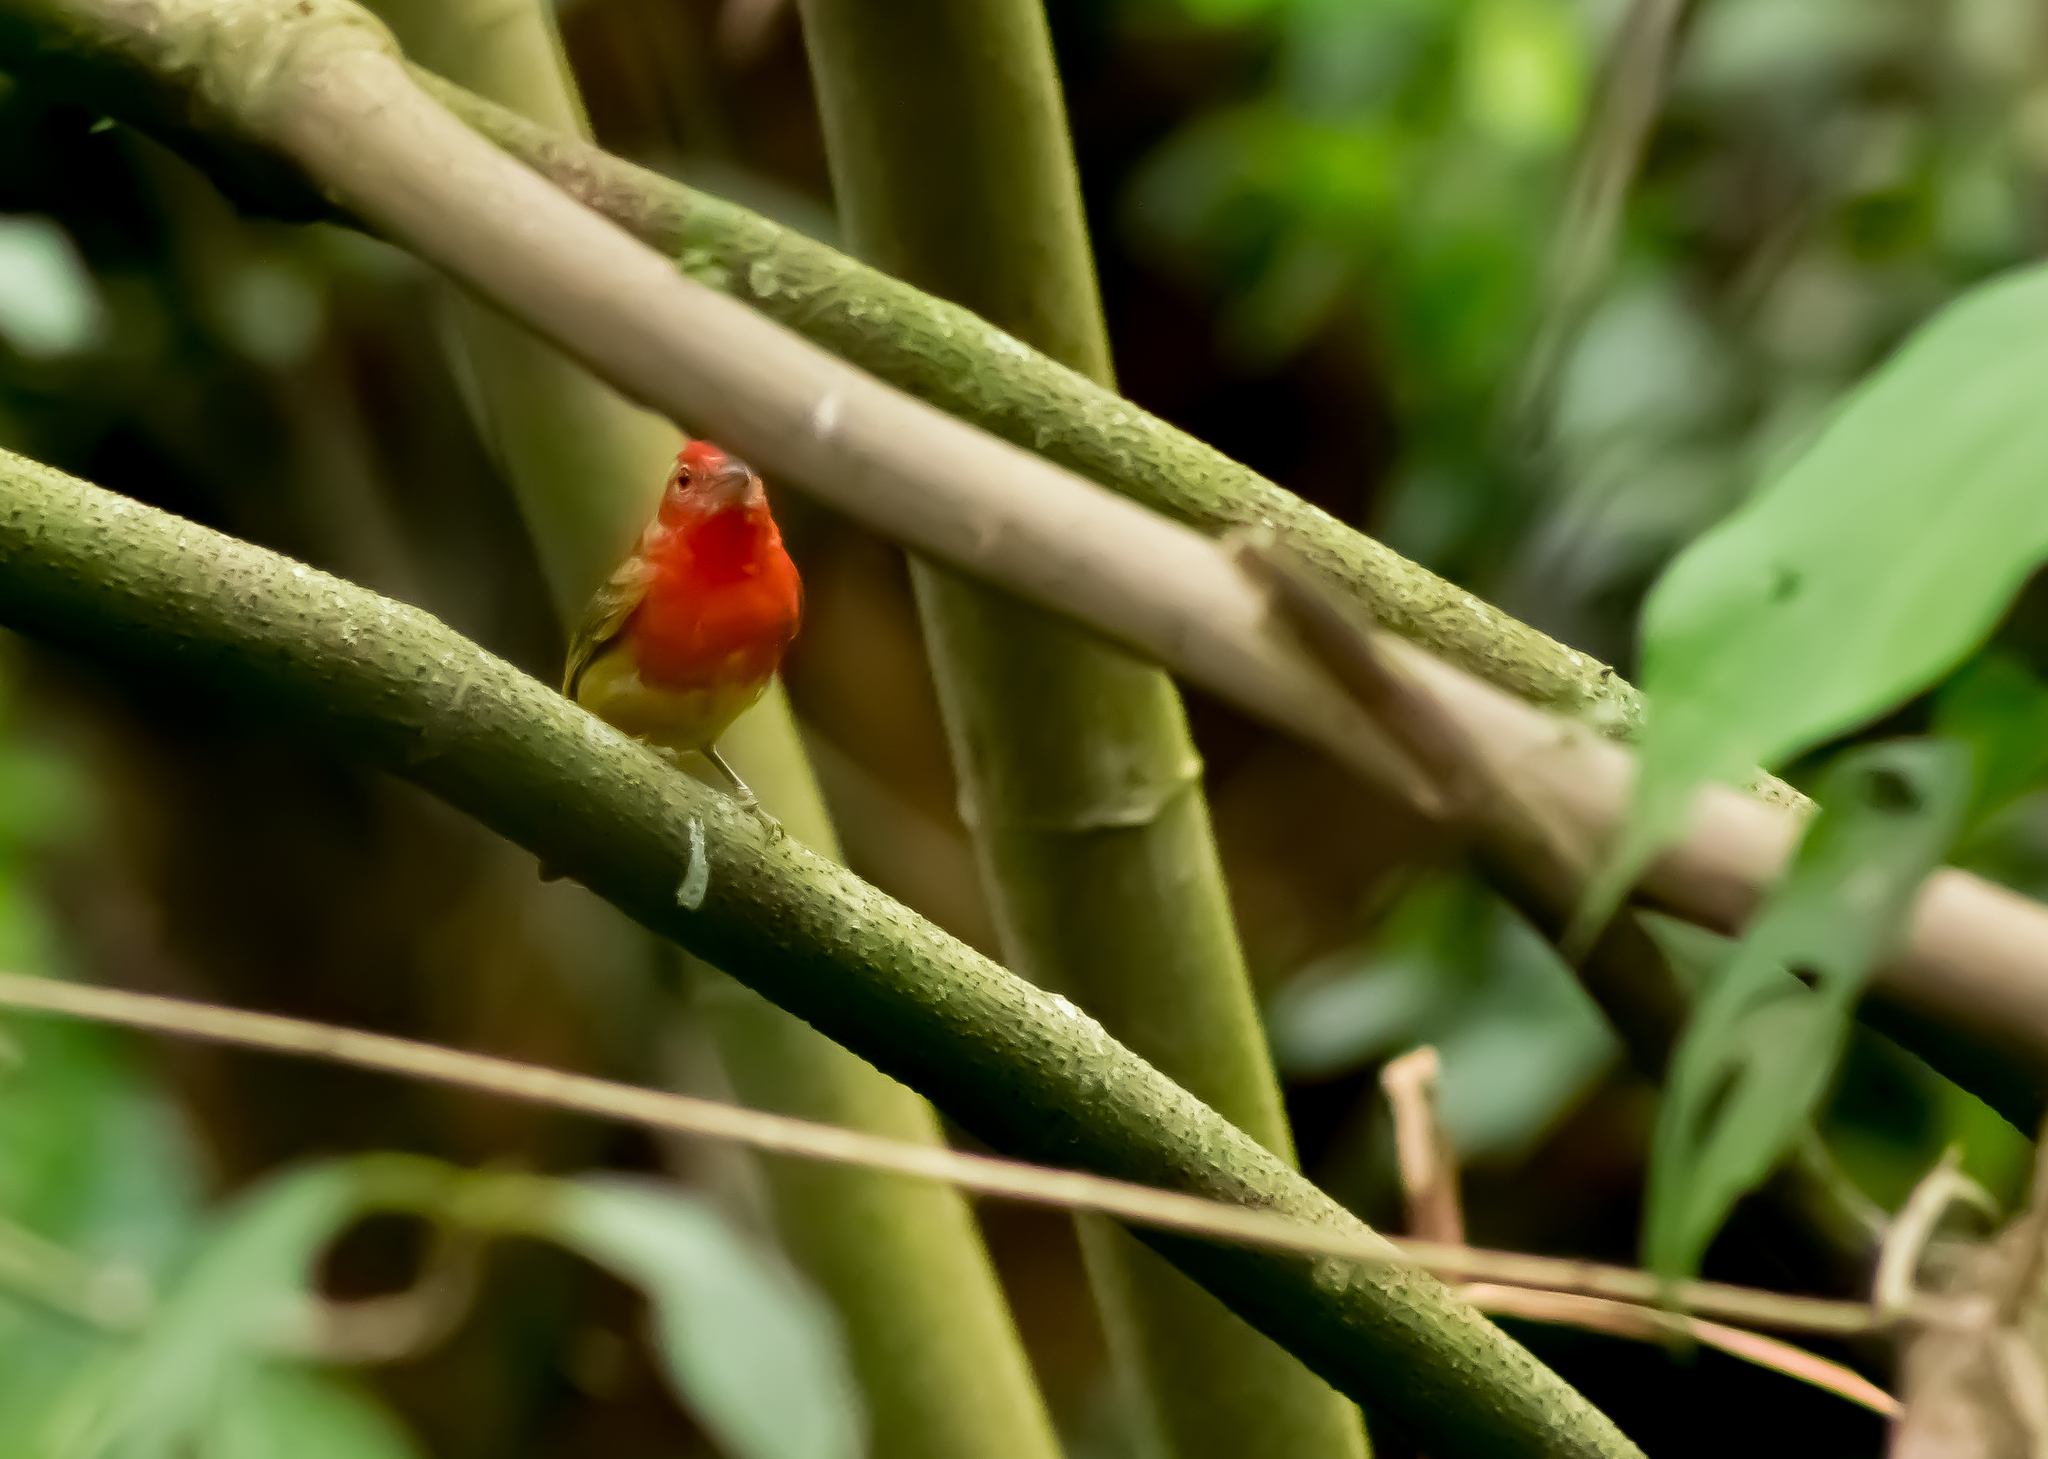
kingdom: Animalia
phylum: Chordata
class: Aves
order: Passeriformes
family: Cardinalidae
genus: Piranga
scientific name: Piranga rubra
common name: Summer tanager
